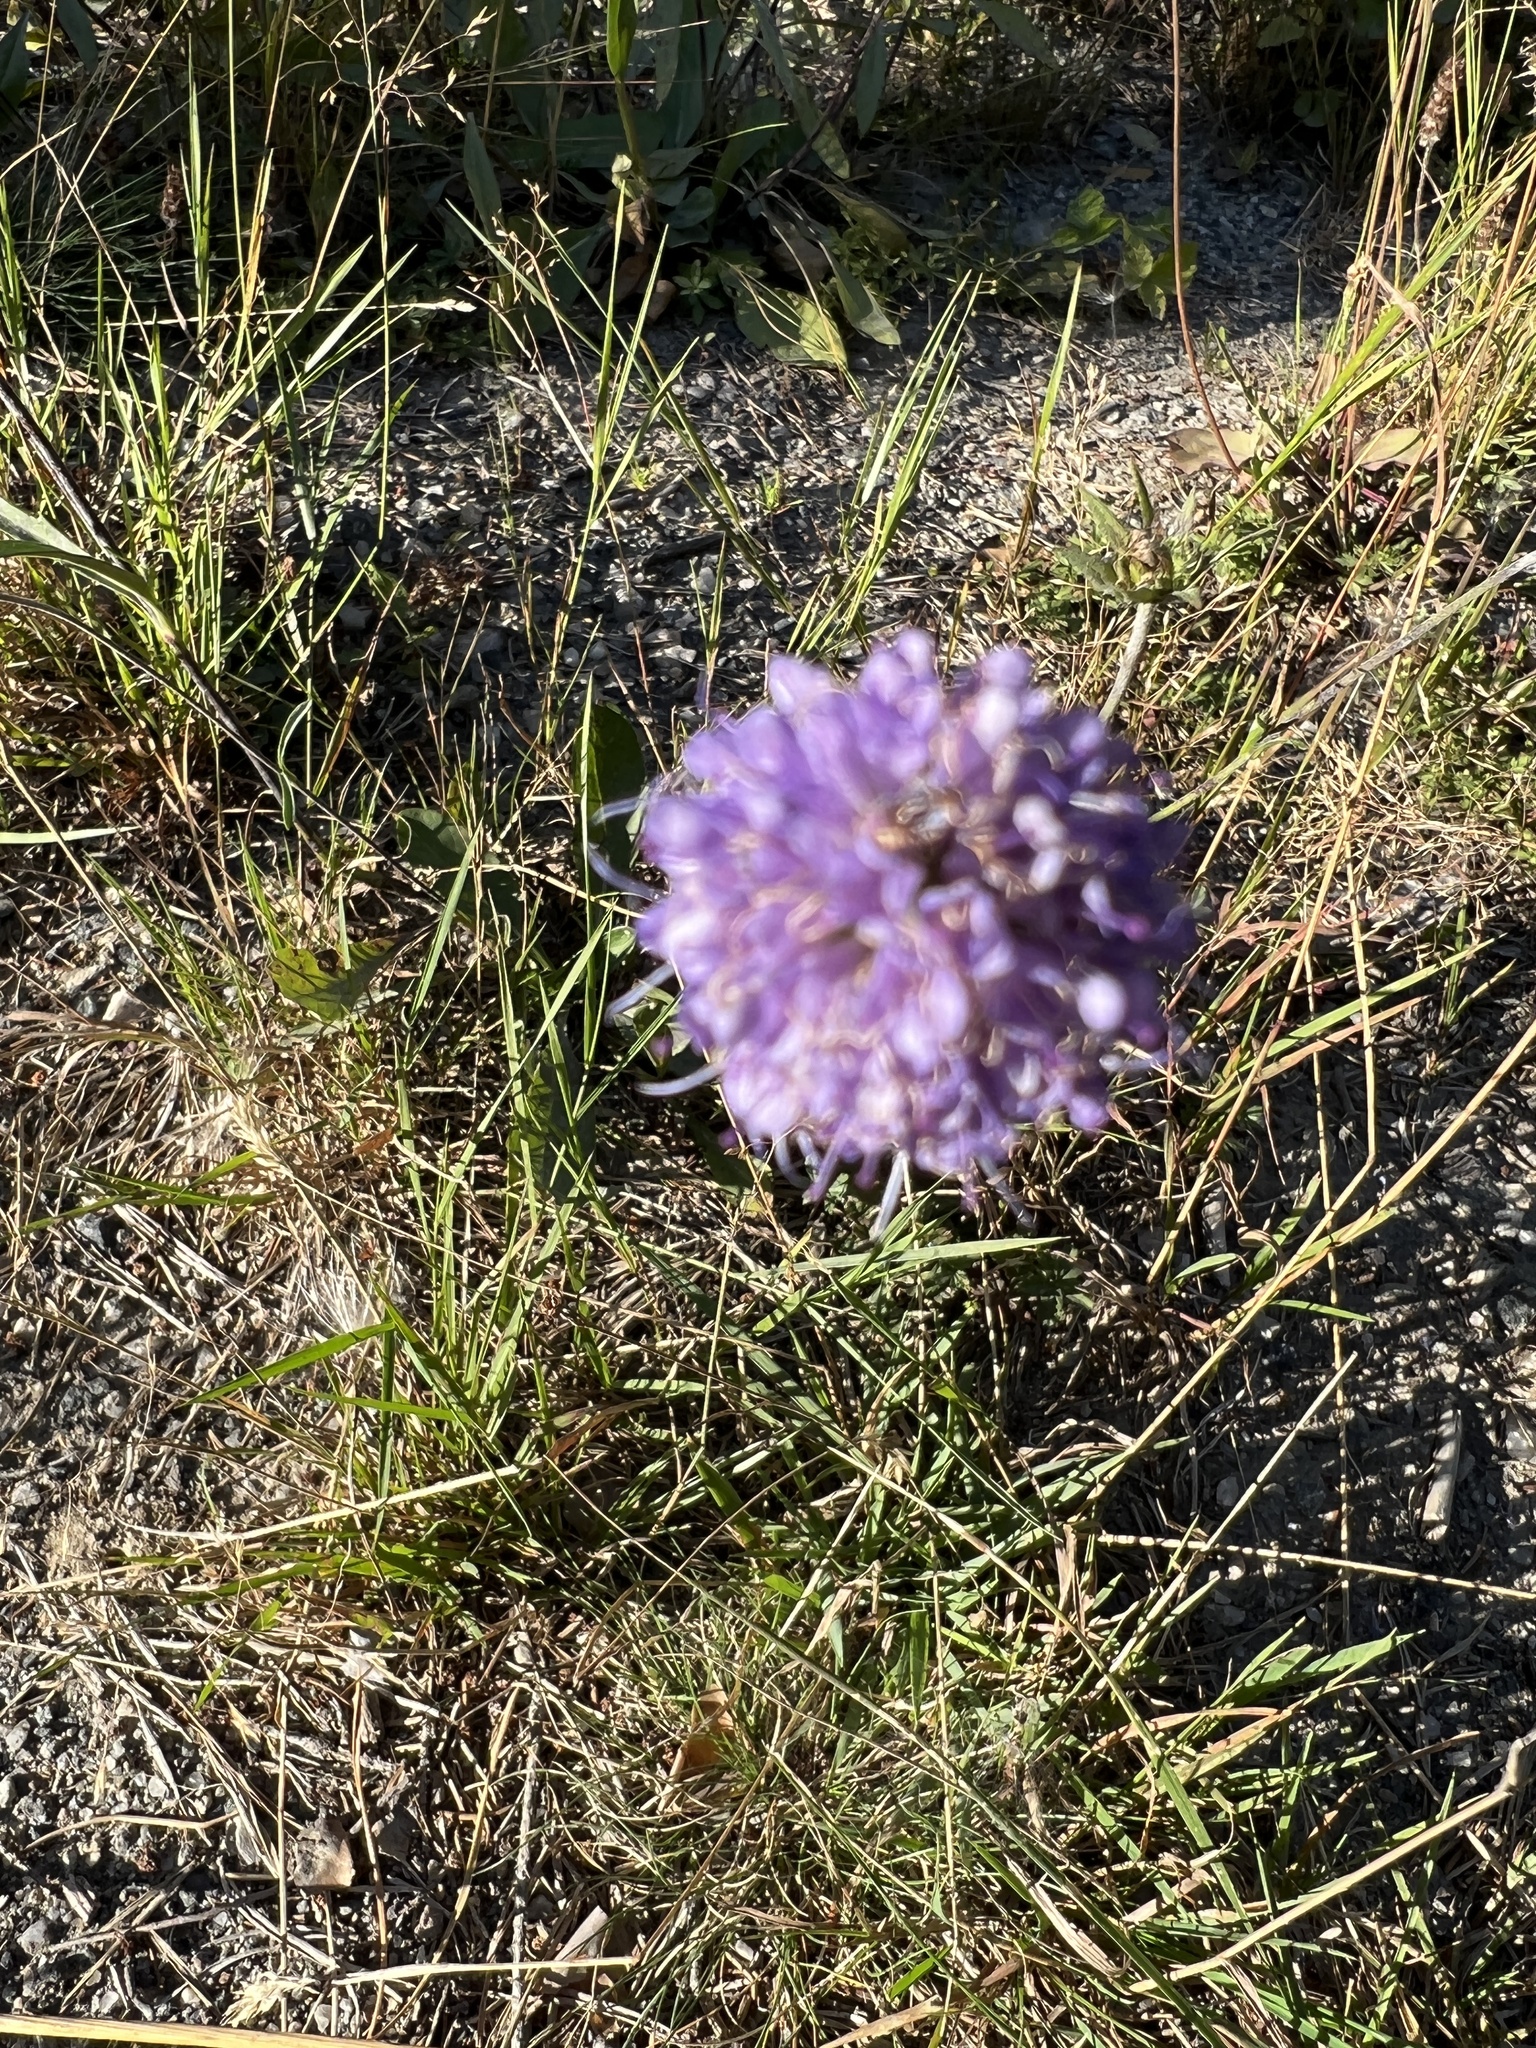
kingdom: Plantae
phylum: Tracheophyta
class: Magnoliopsida
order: Dipsacales
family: Caprifoliaceae
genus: Knautia
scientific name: Knautia arvensis
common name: Field scabiosa
